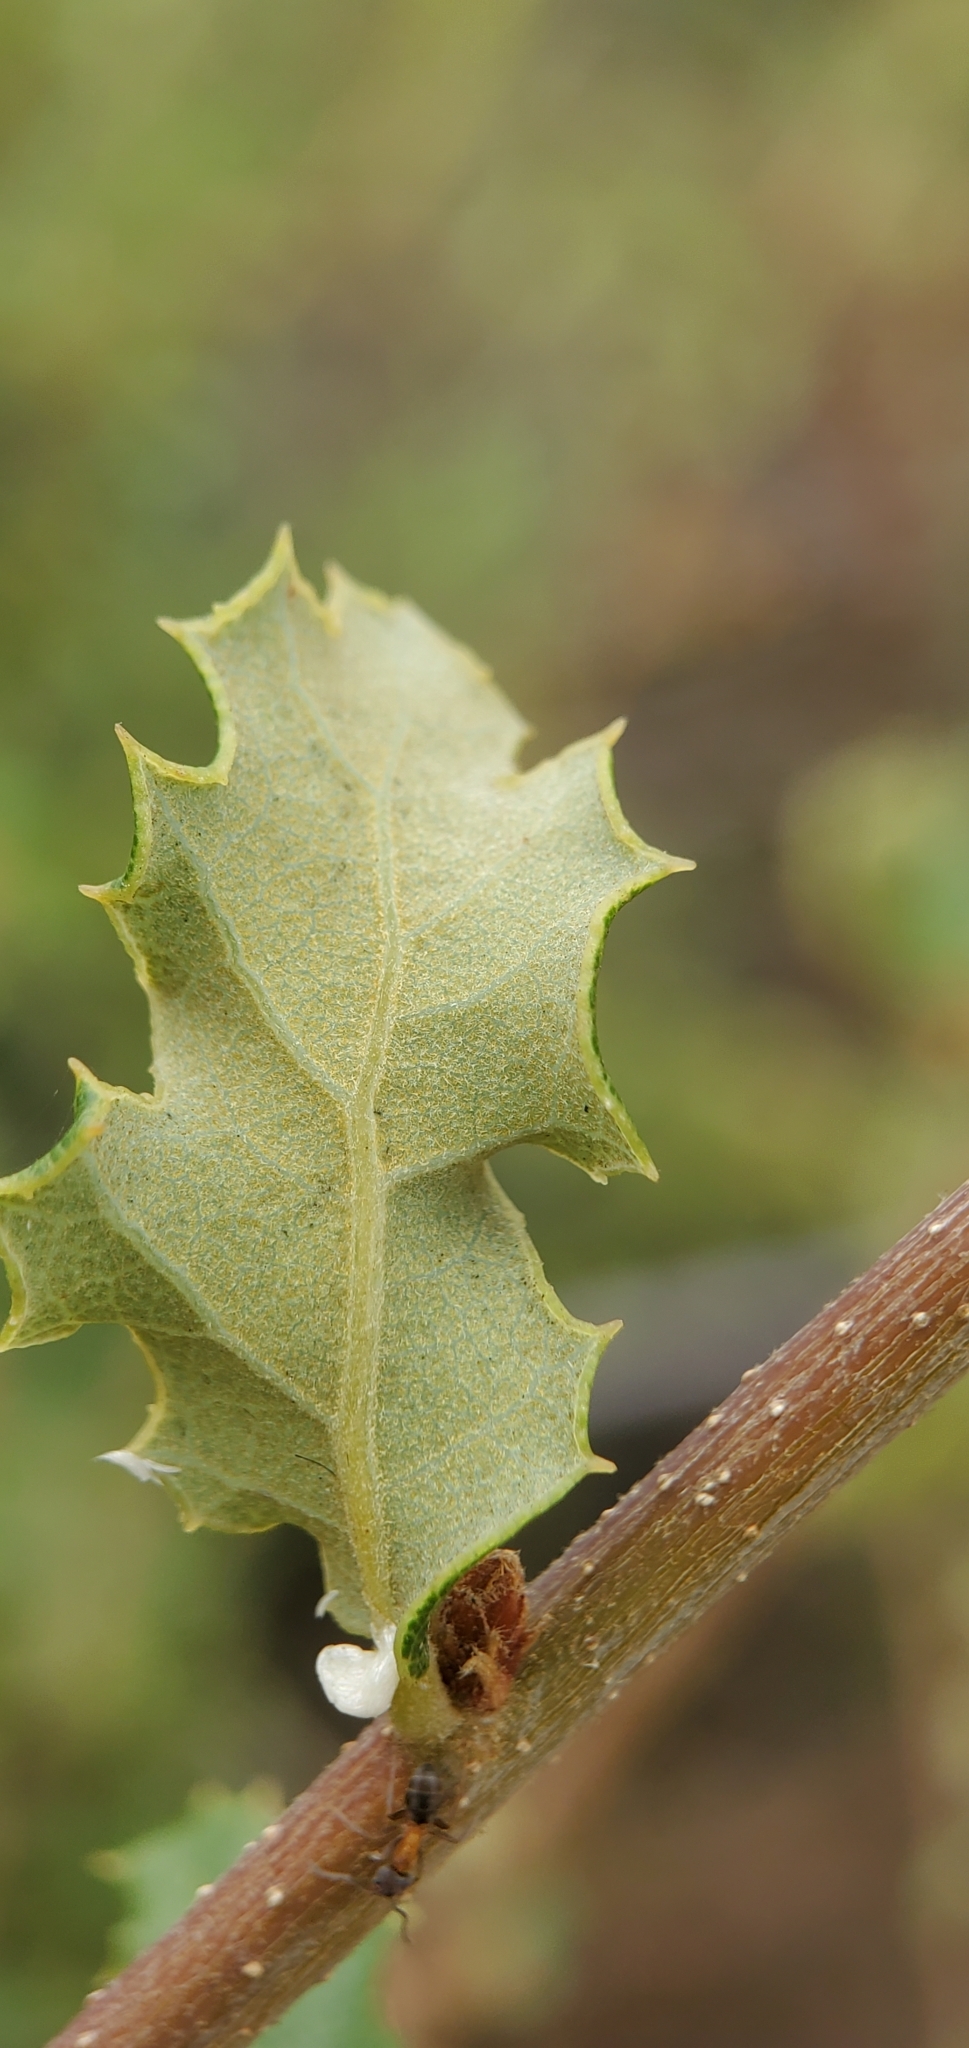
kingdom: Plantae
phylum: Tracheophyta
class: Magnoliopsida
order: Fagales
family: Fagaceae
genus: Quercus
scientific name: Quercus berberidifolia
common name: California scrub oak
